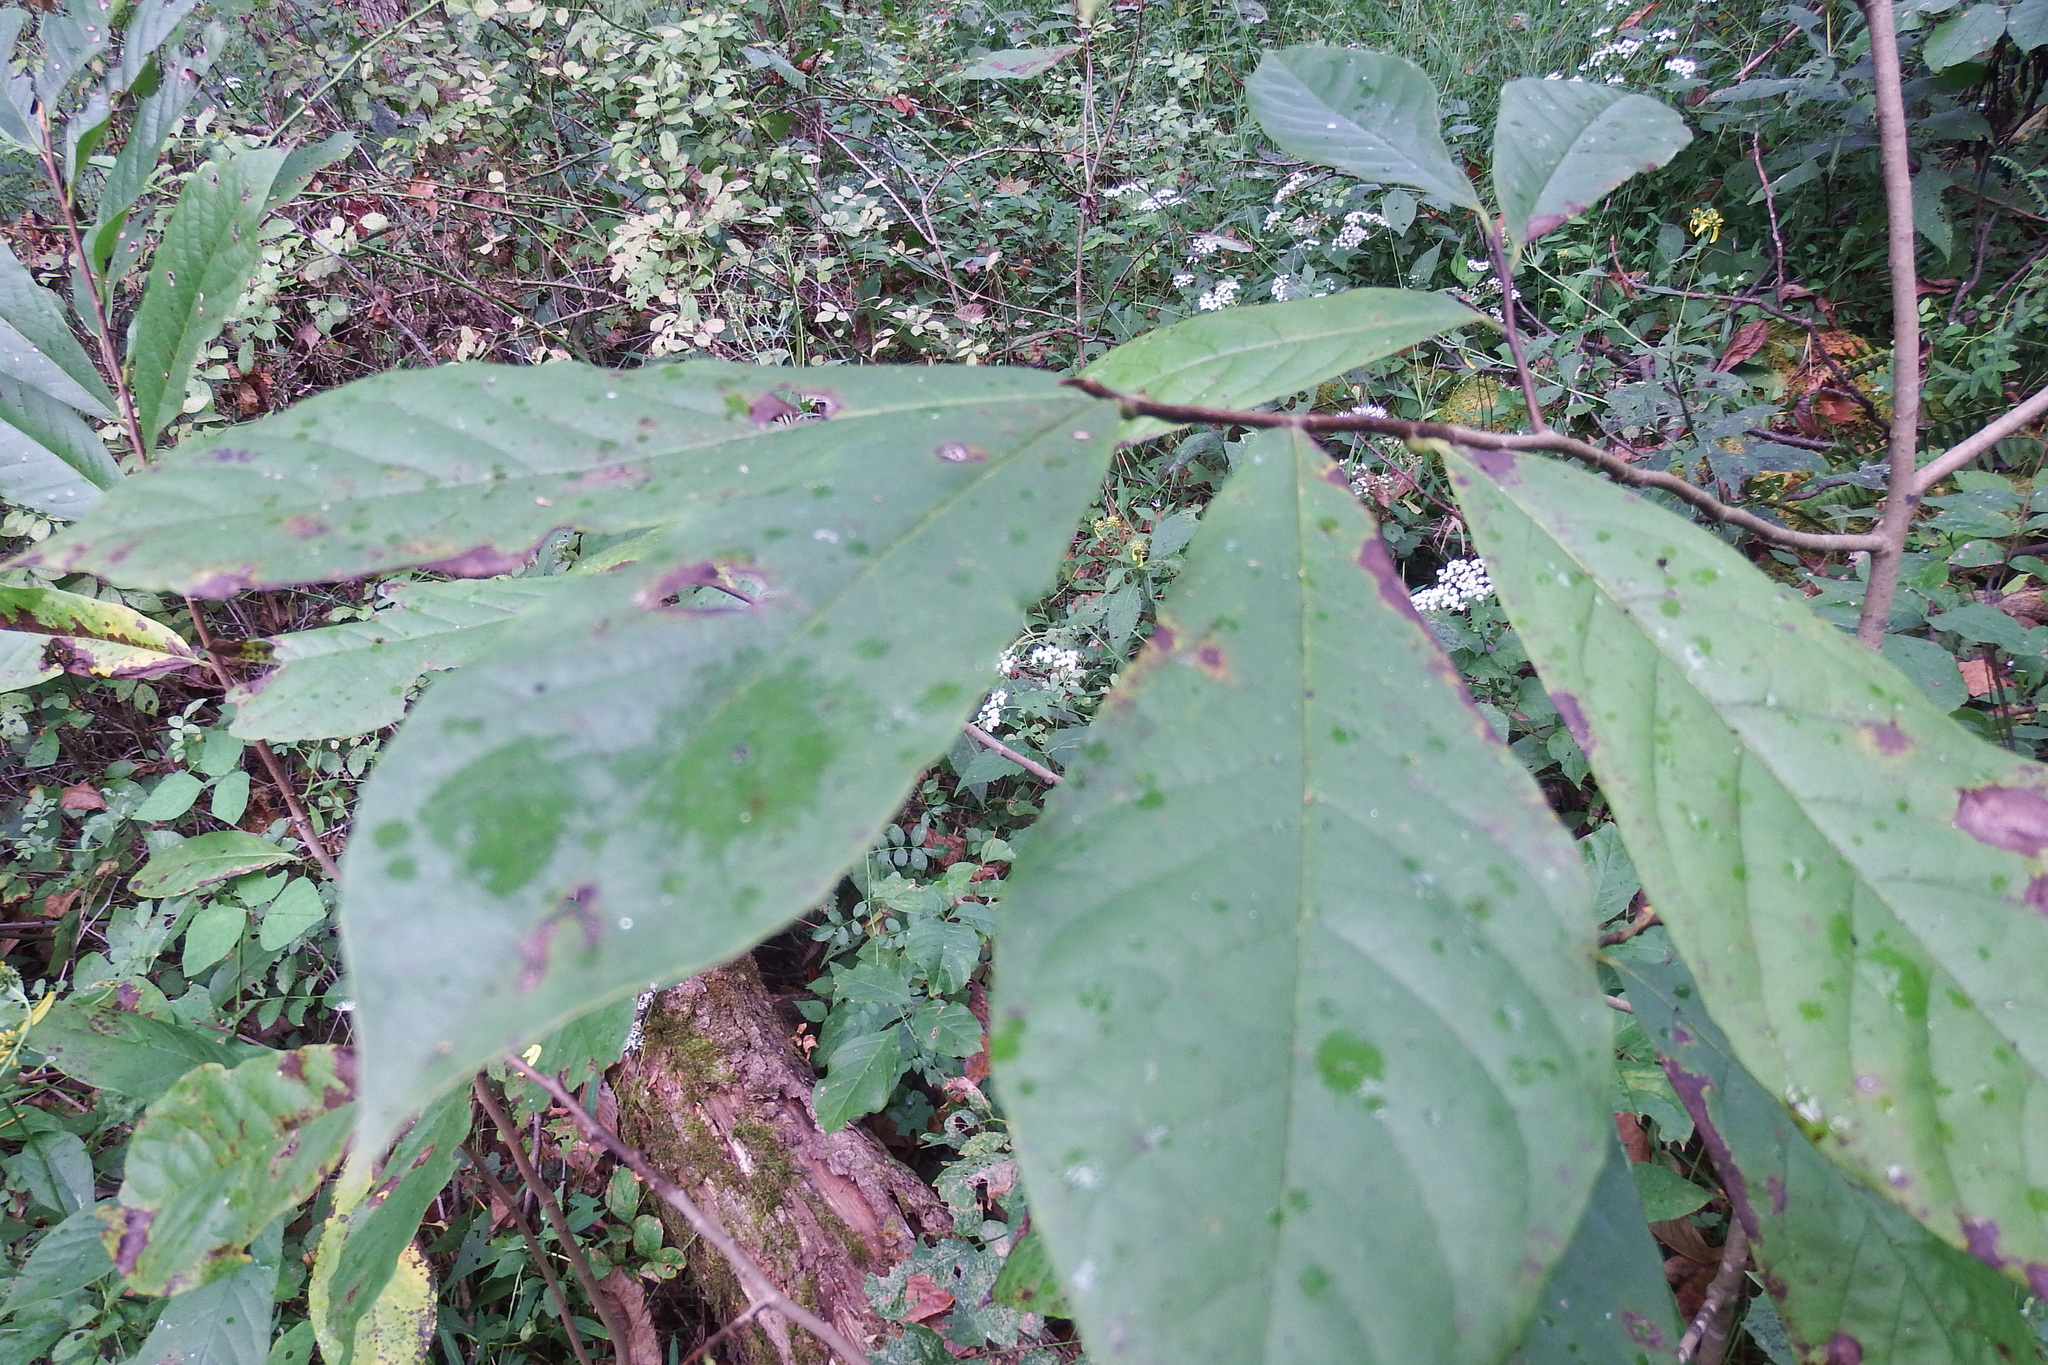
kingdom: Plantae
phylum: Tracheophyta
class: Magnoliopsida
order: Magnoliales
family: Annonaceae
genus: Asimina
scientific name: Asimina triloba
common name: Dog-banana
